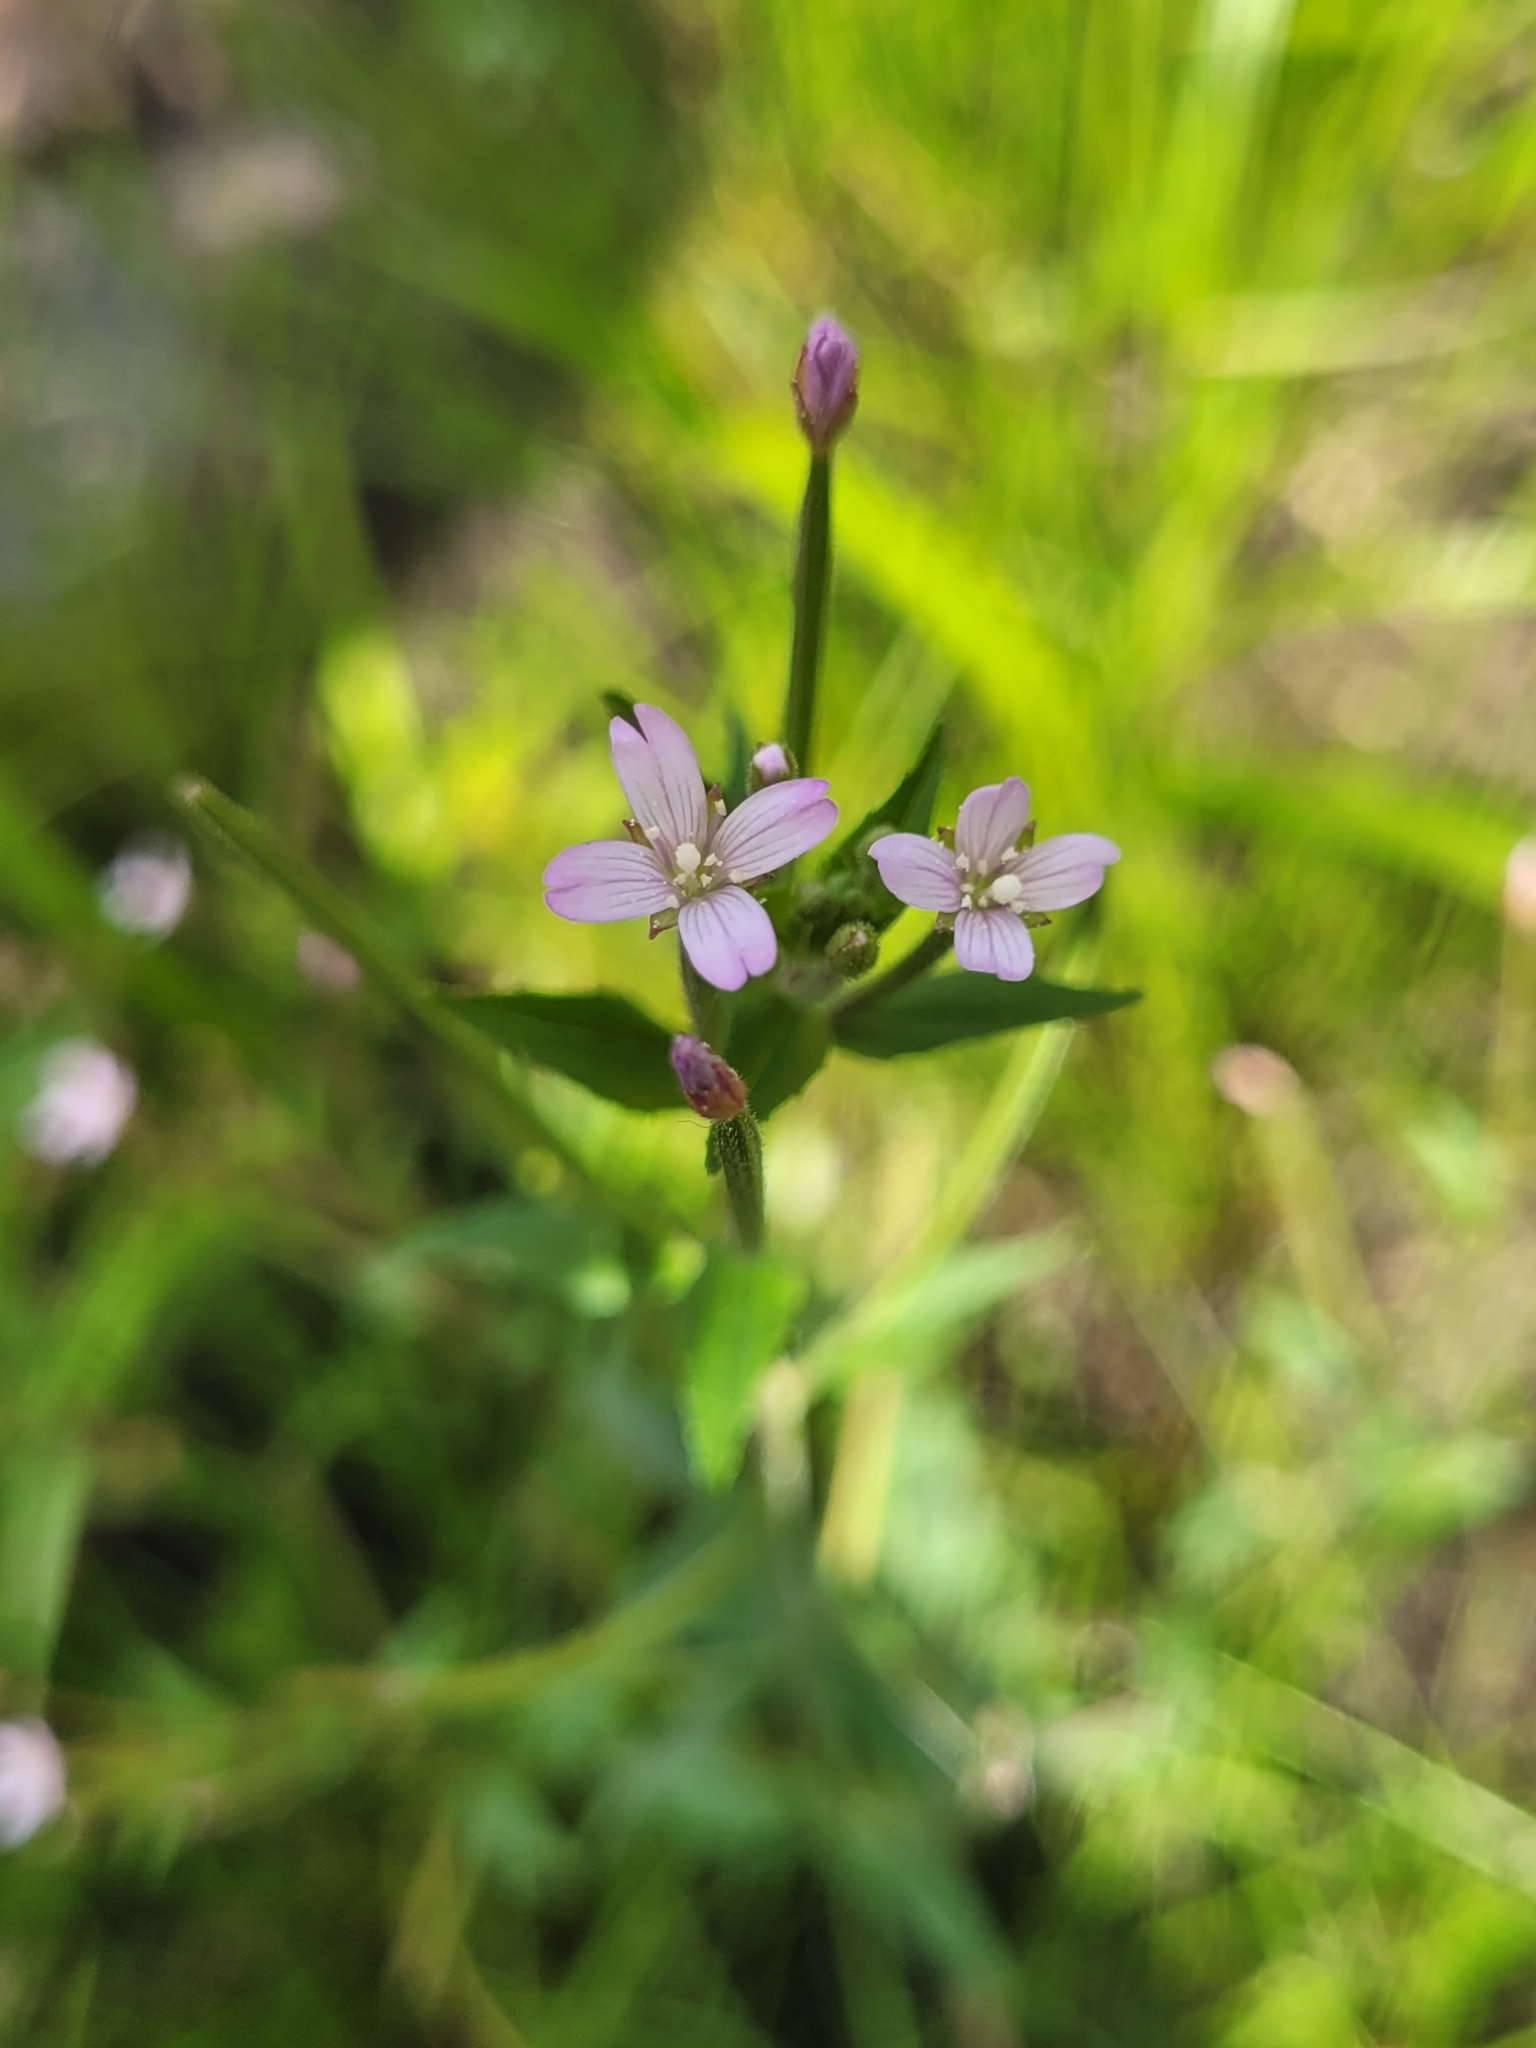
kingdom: Plantae
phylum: Tracheophyta
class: Magnoliopsida
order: Myrtales
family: Onagraceae
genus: Epilobium
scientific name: Epilobium parviflorum
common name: Hoary willowherb
